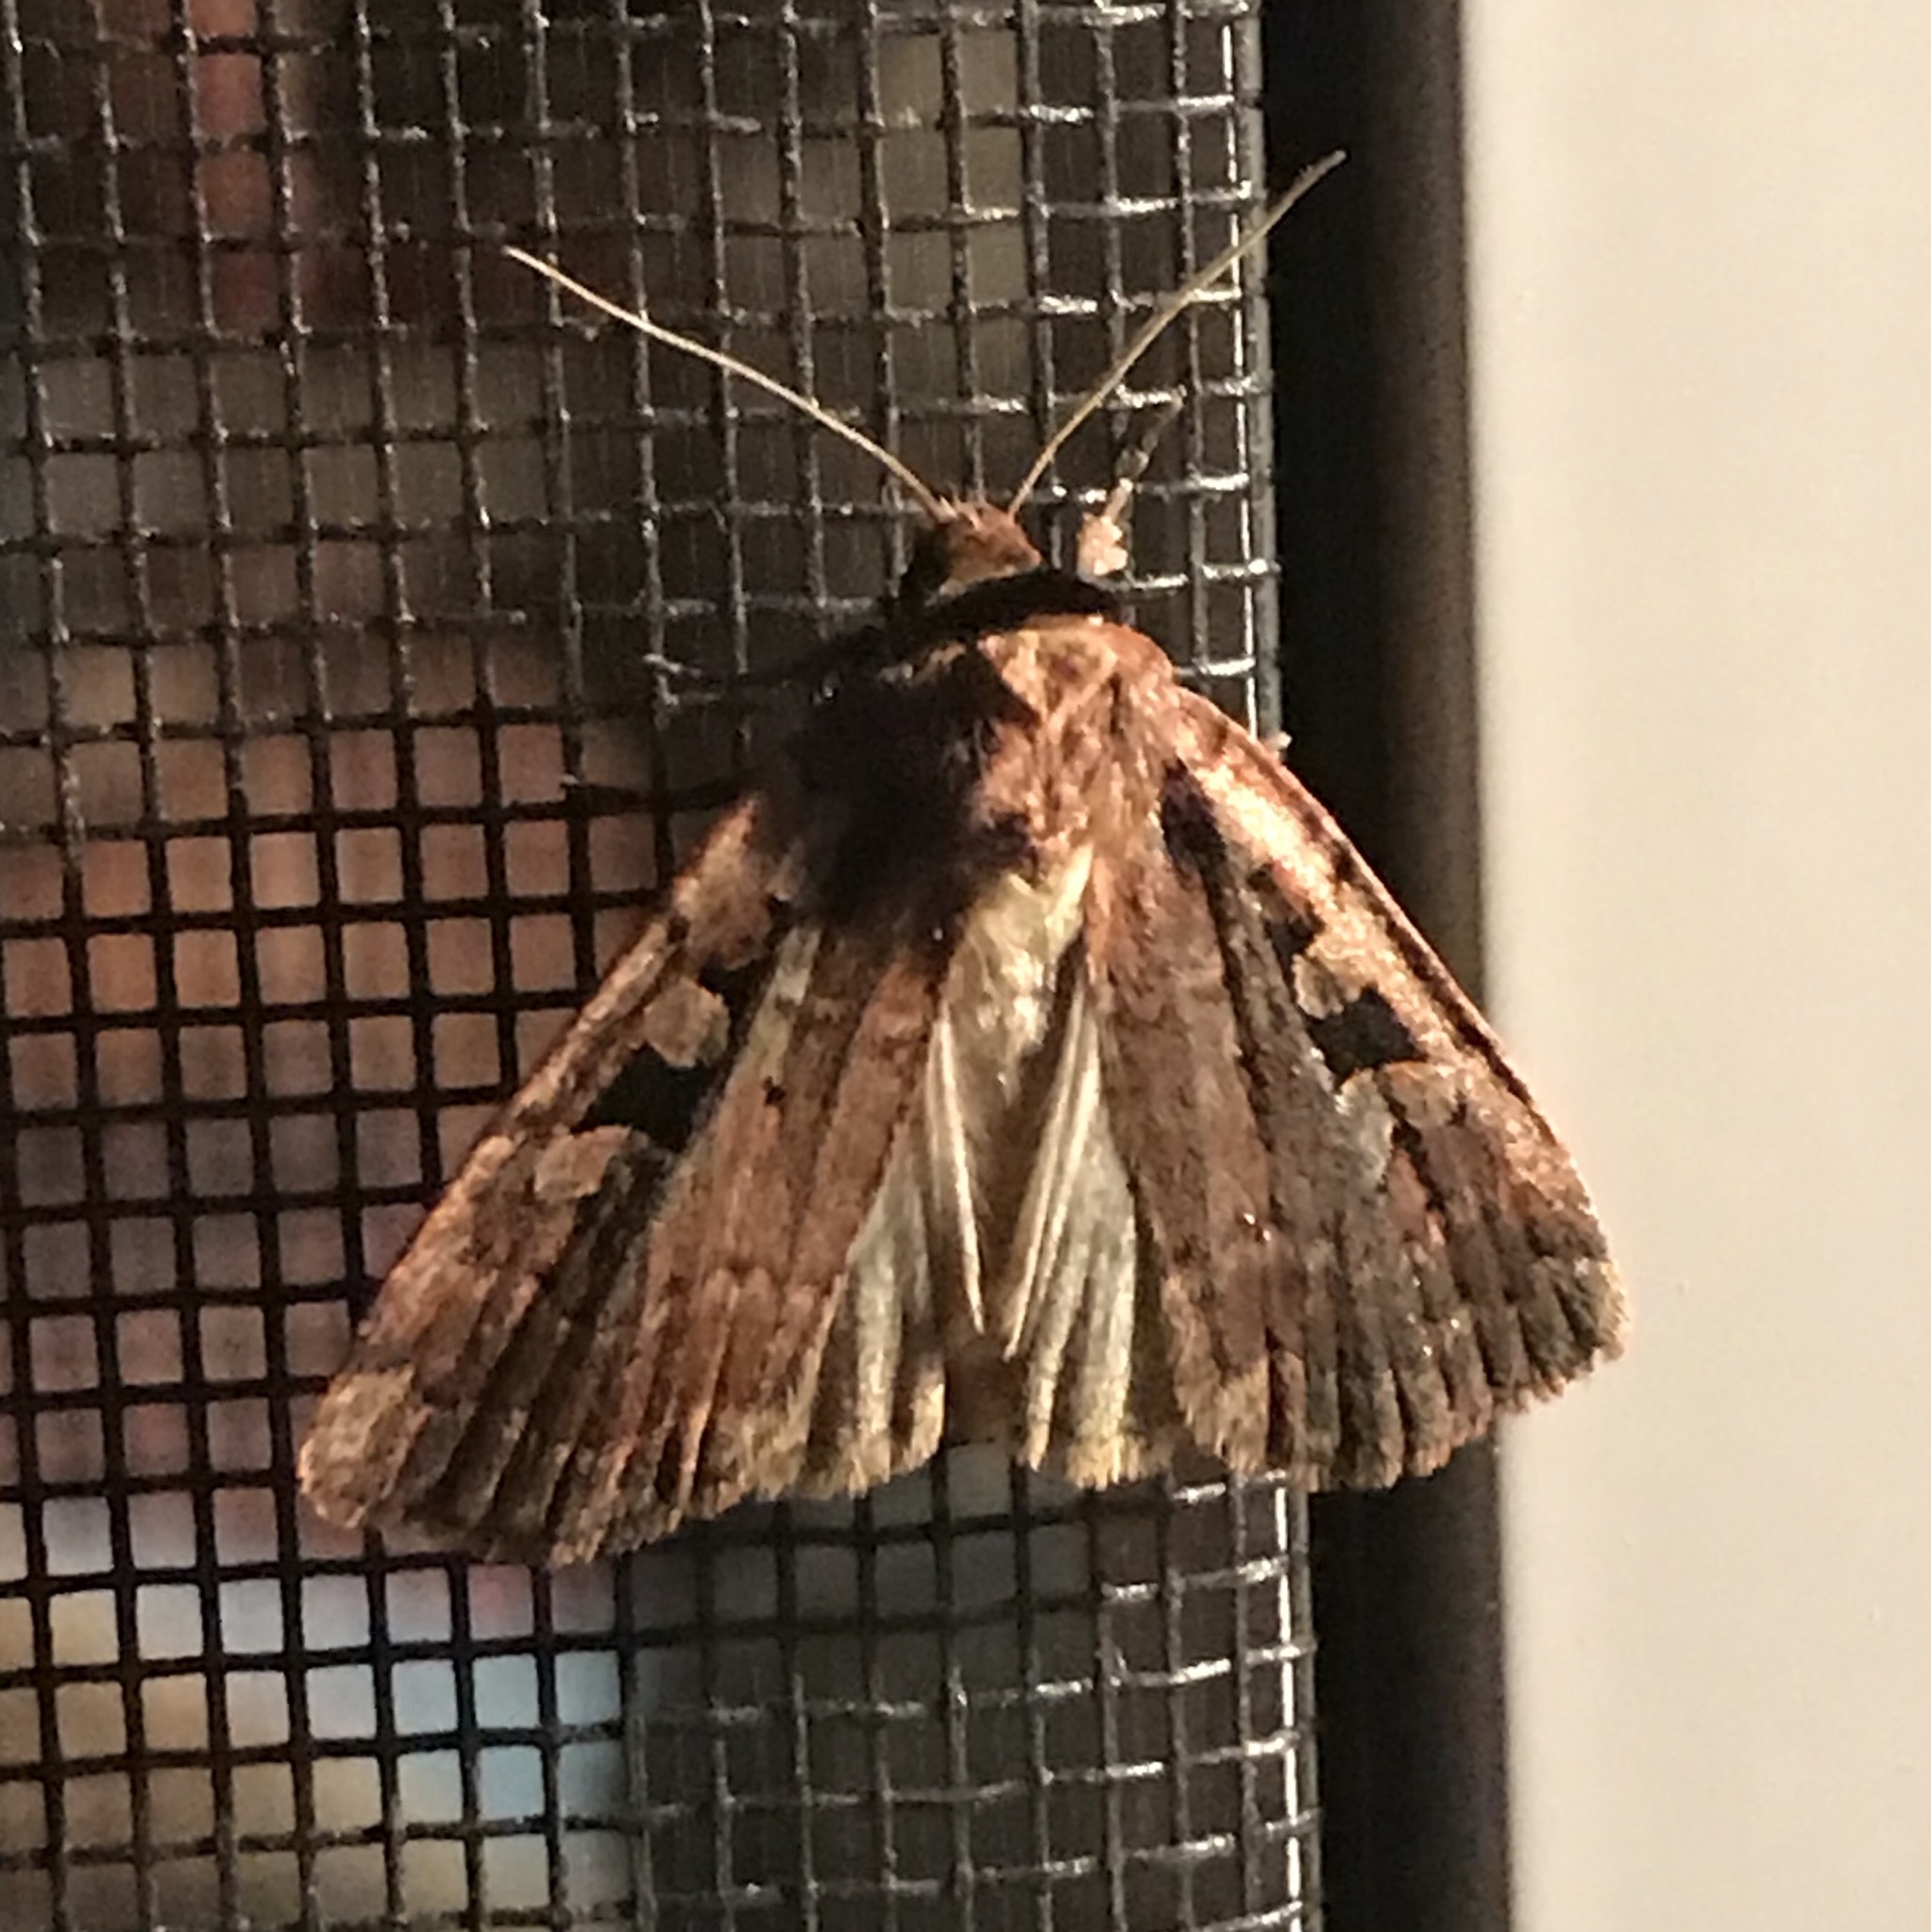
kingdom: Animalia
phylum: Arthropoda
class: Insecta
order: Lepidoptera
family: Noctuidae
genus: Eueretagrotis
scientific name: Eueretagrotis perattentus
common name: Two-spot dart moth
